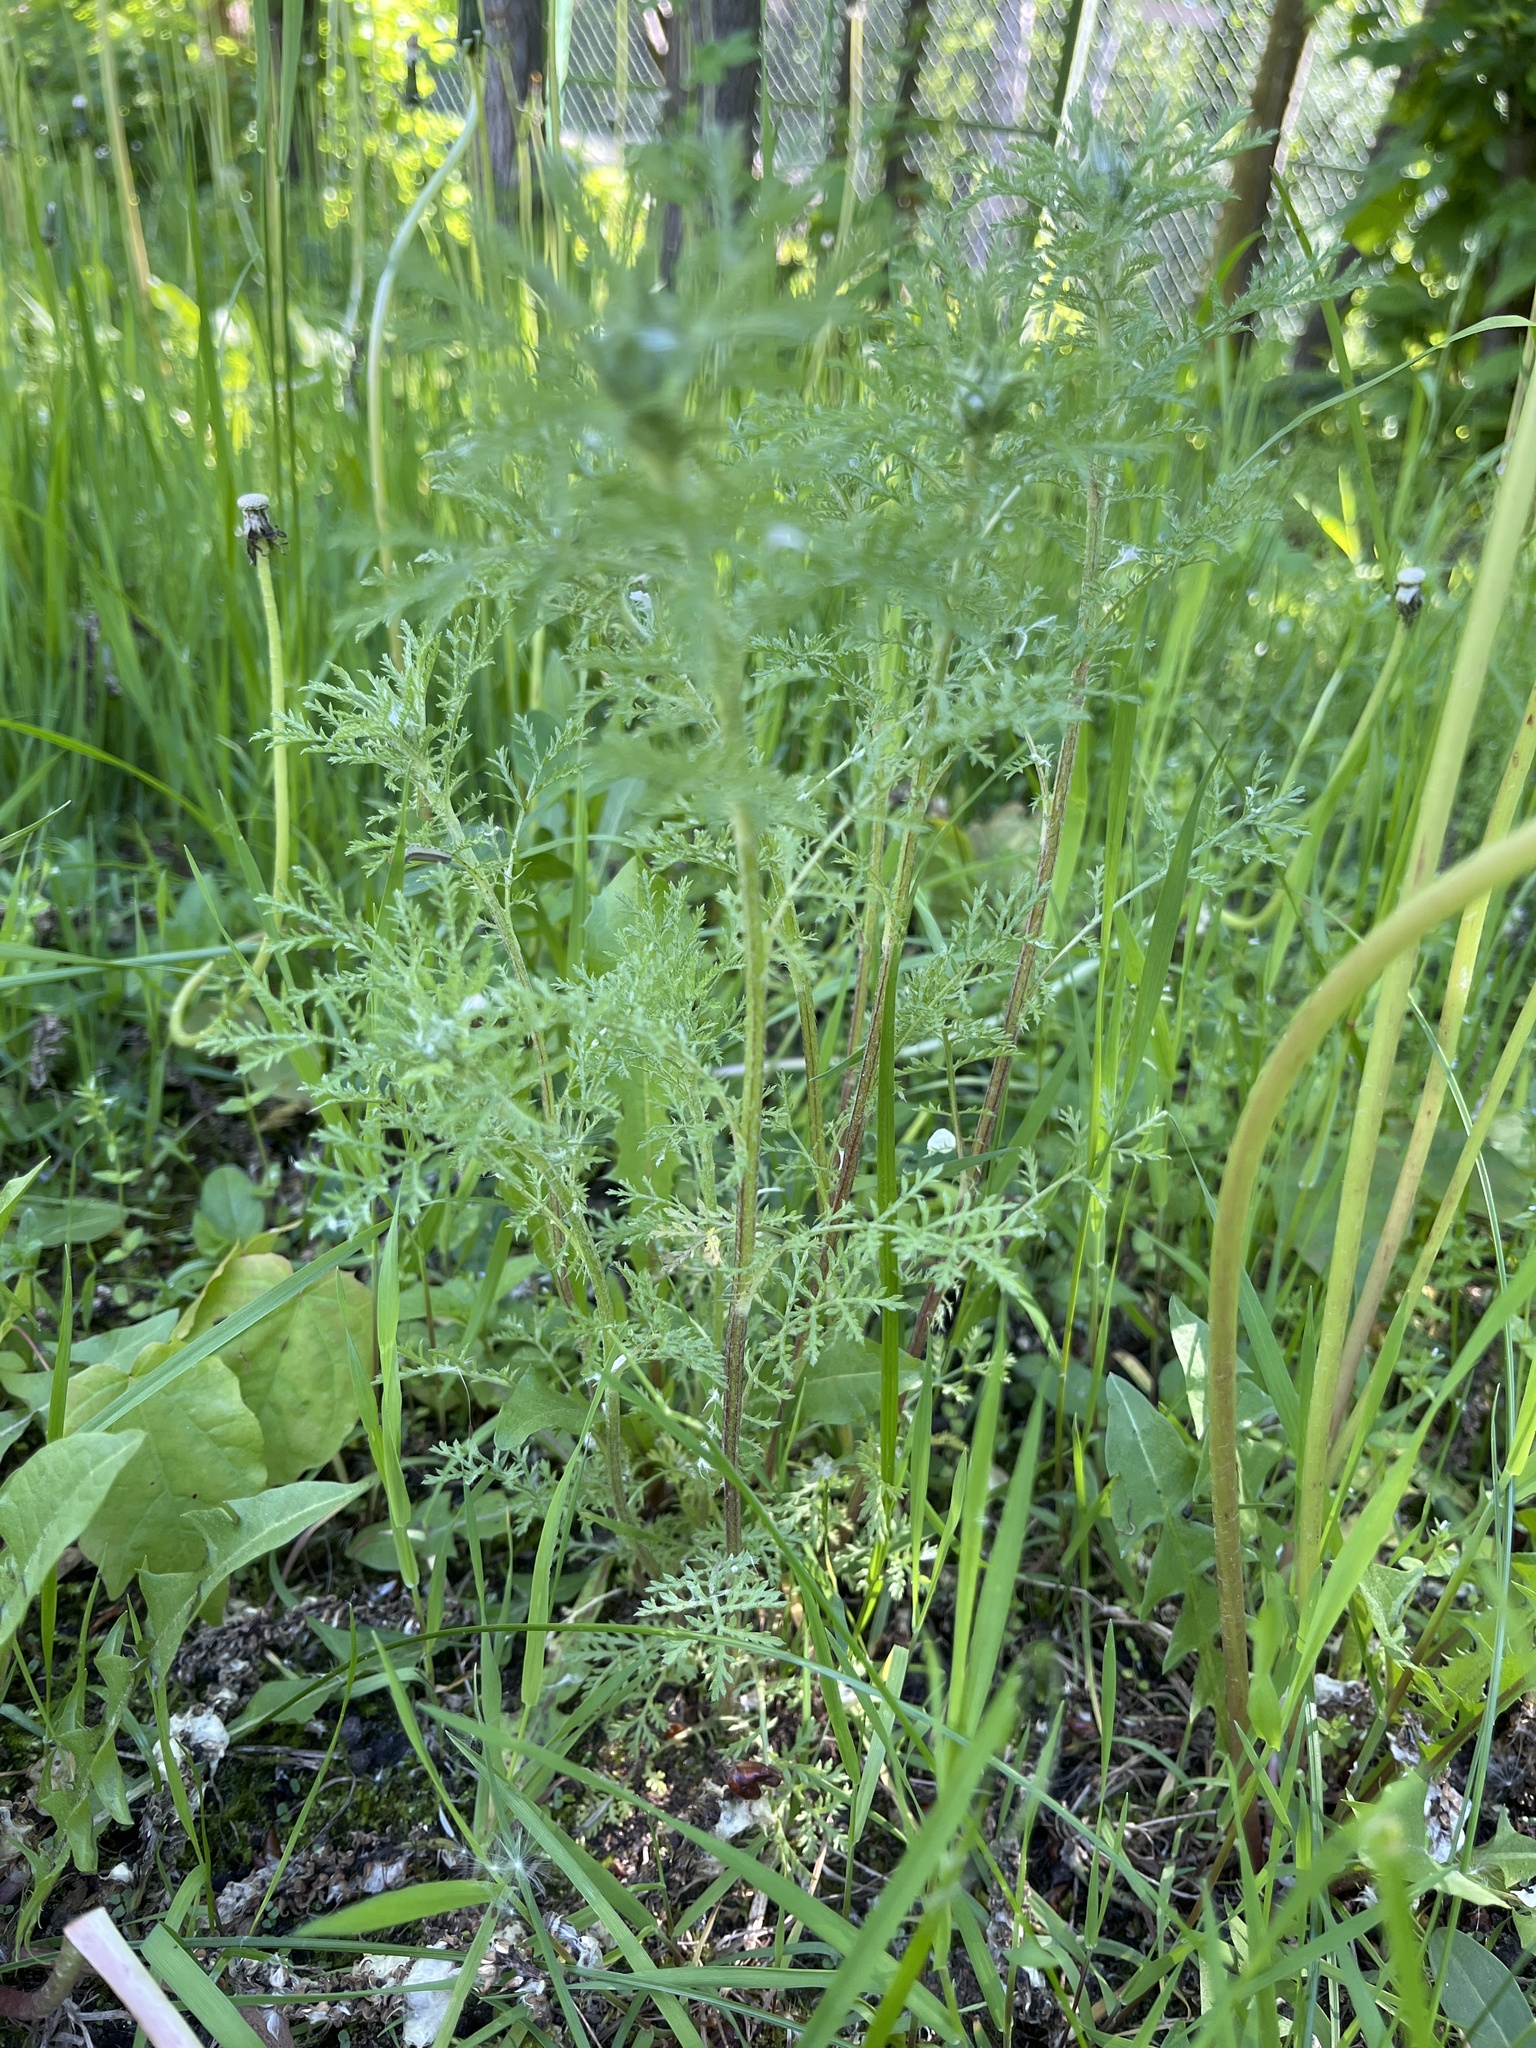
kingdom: Plantae
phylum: Tracheophyta
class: Magnoliopsida
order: Asterales
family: Asteraceae
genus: Achillea
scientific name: Achillea nobilis
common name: Noble yarrow
